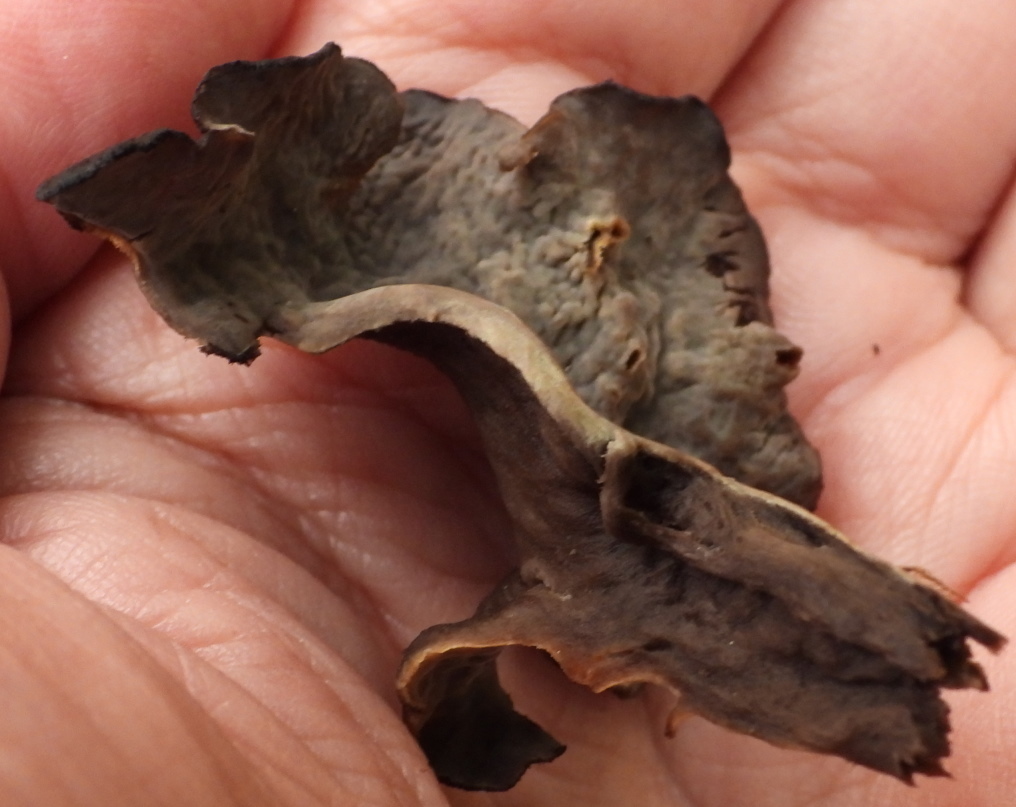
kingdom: Fungi
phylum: Basidiomycota
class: Agaricomycetes
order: Cantharellales
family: Hydnaceae
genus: Craterellus
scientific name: Craterellus cornucopioides
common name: Horn of plenty
